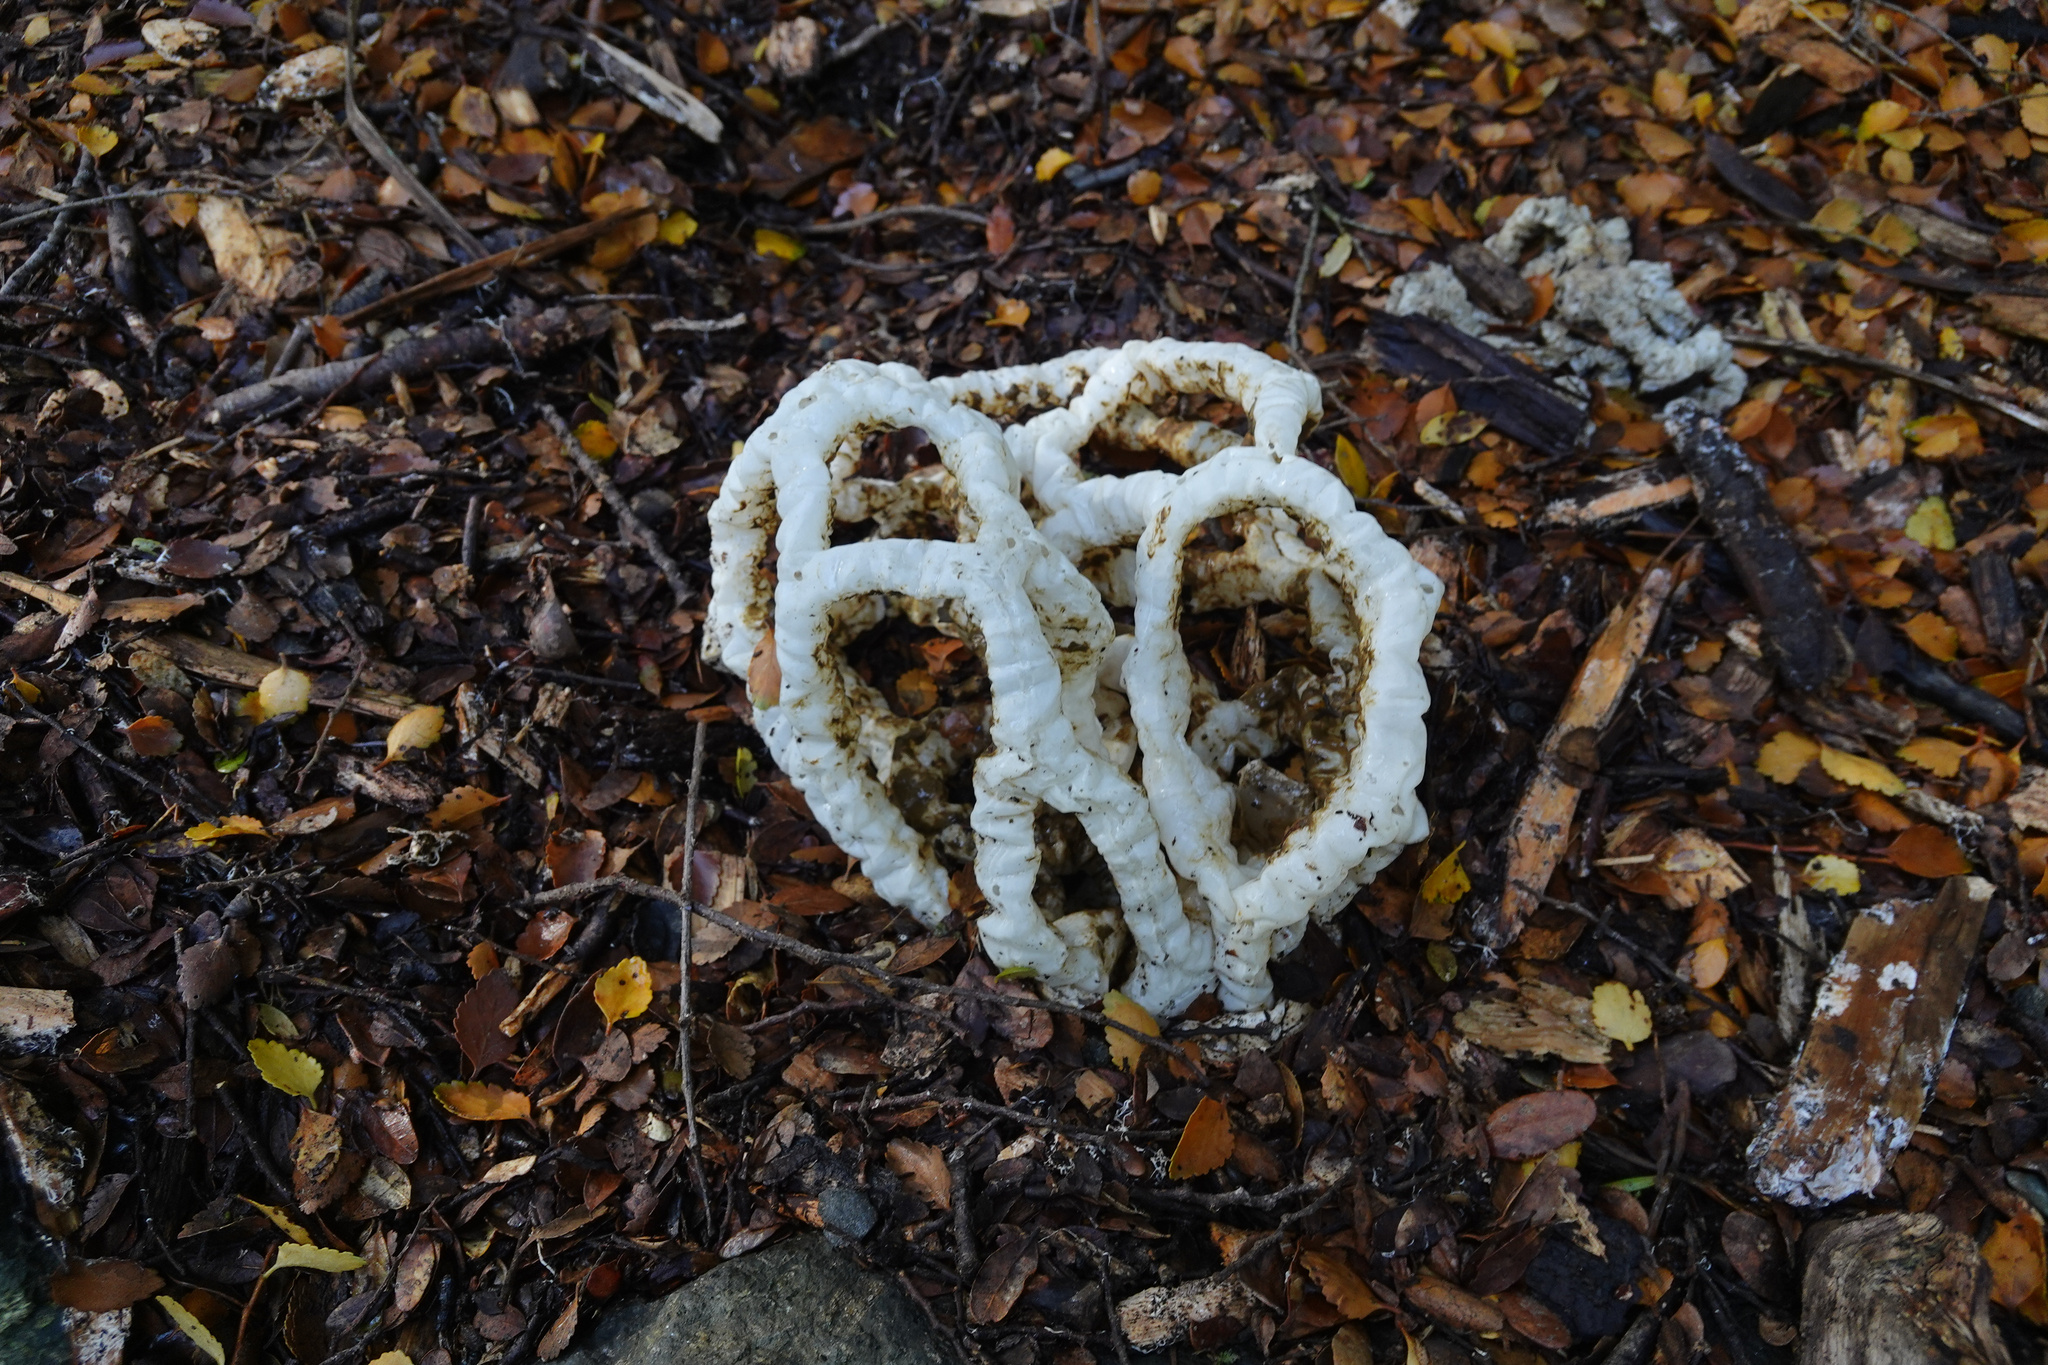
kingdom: Fungi
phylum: Basidiomycota
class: Agaricomycetes
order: Phallales
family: Phallaceae
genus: Ileodictyon
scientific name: Ileodictyon cibarium
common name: Basket fungus
